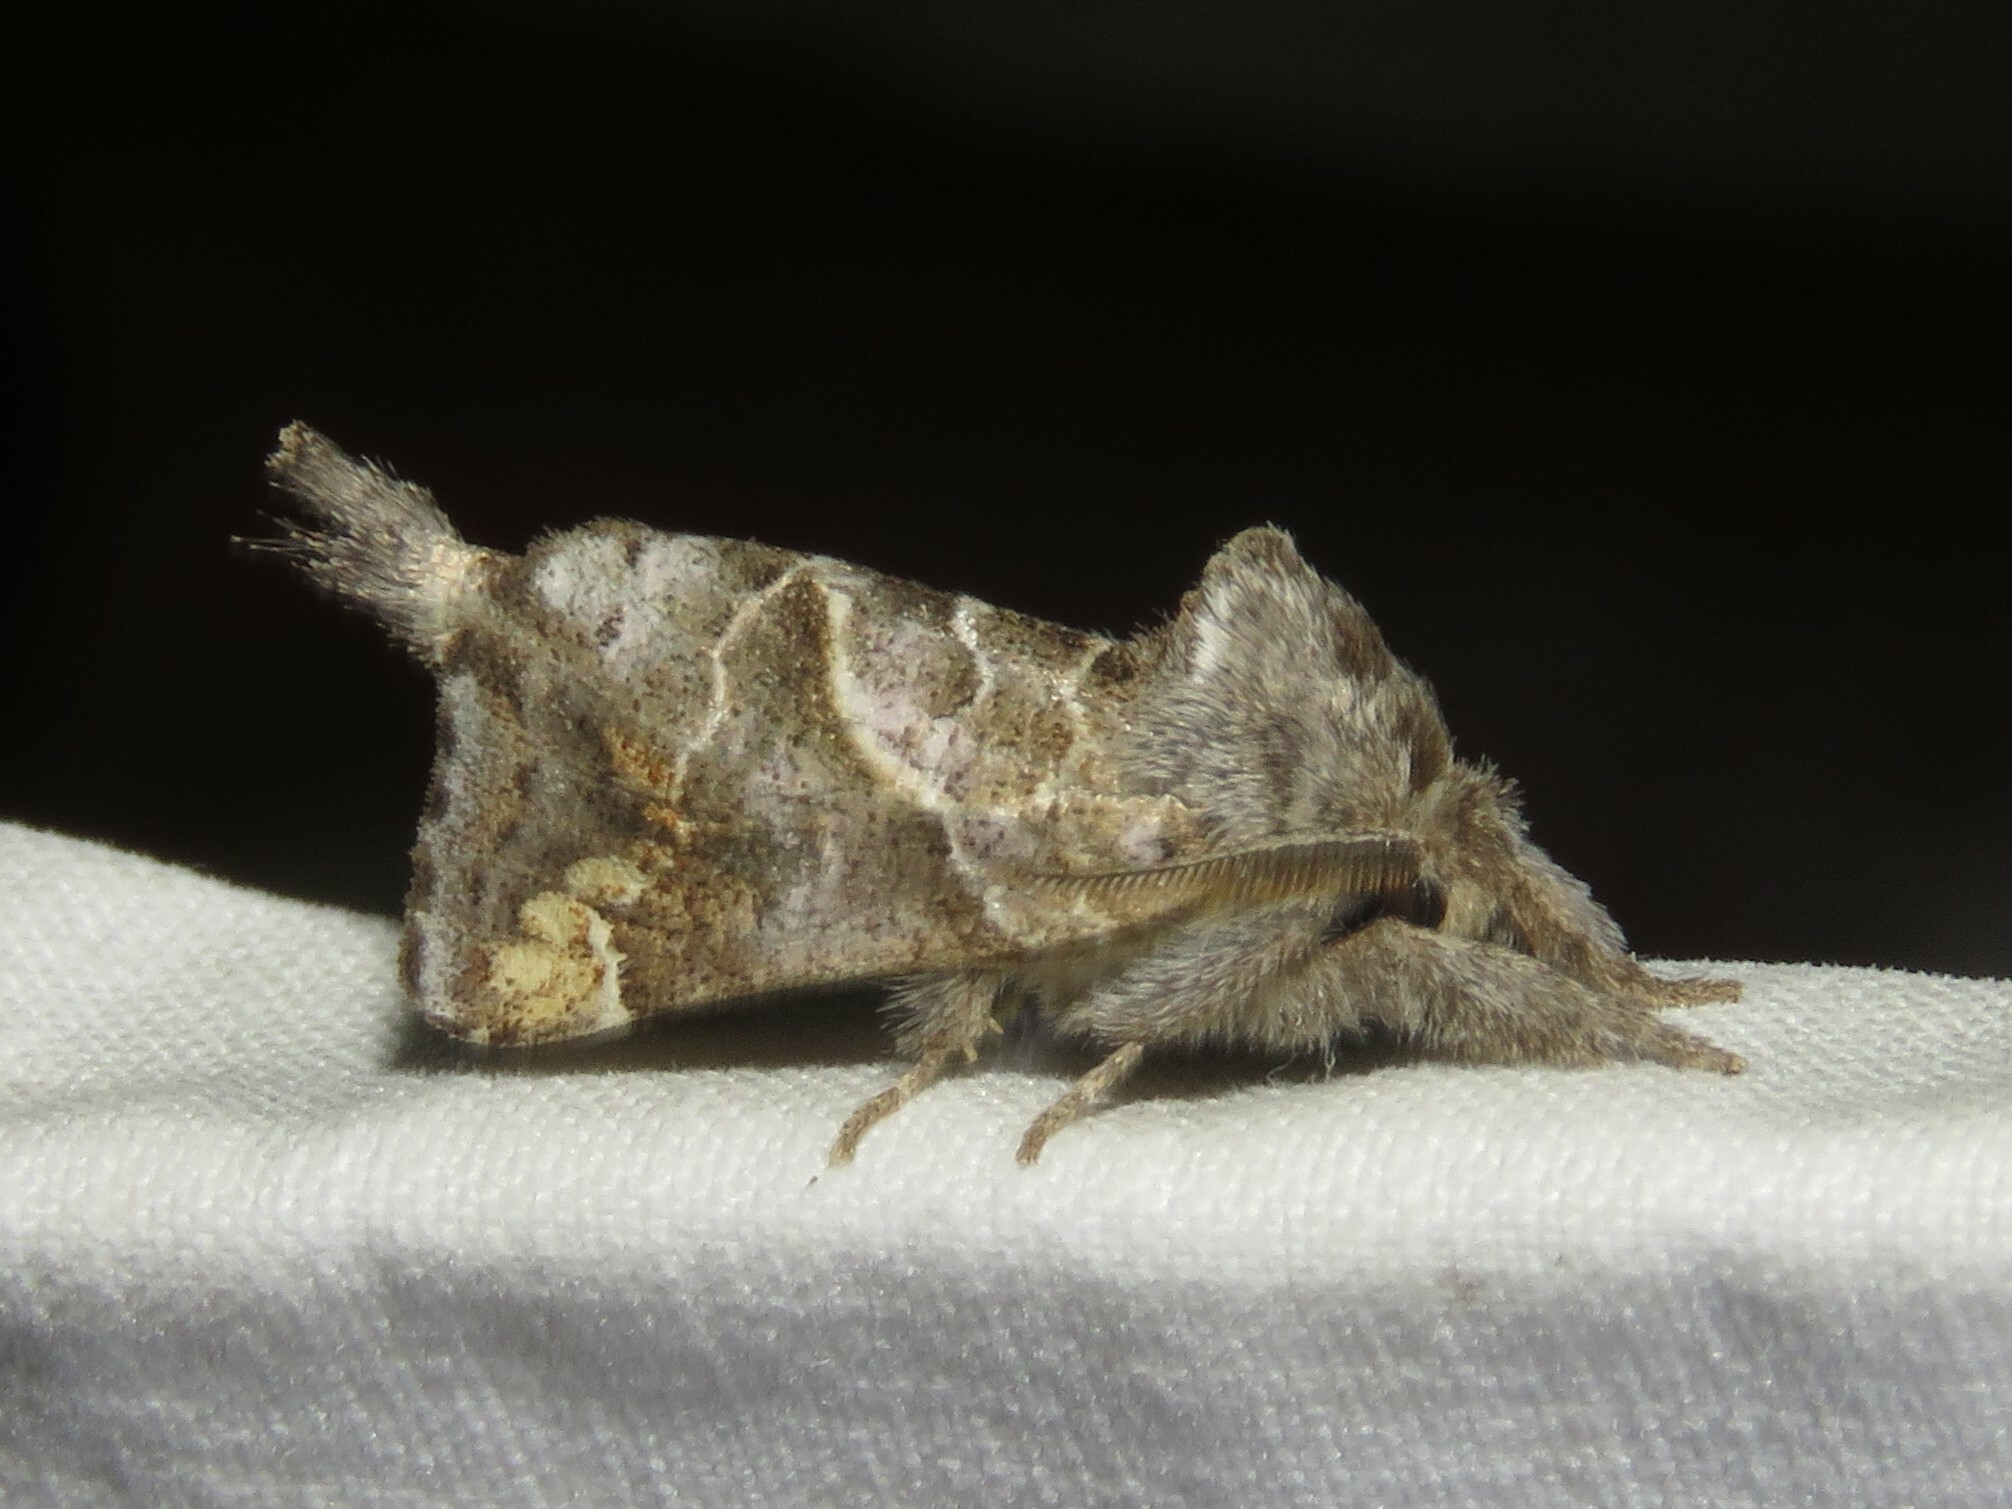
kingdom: Animalia
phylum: Arthropoda
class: Insecta
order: Lepidoptera
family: Notodontidae
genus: Clostera
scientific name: Clostera strigosa
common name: Striped chocolate-tip moth
